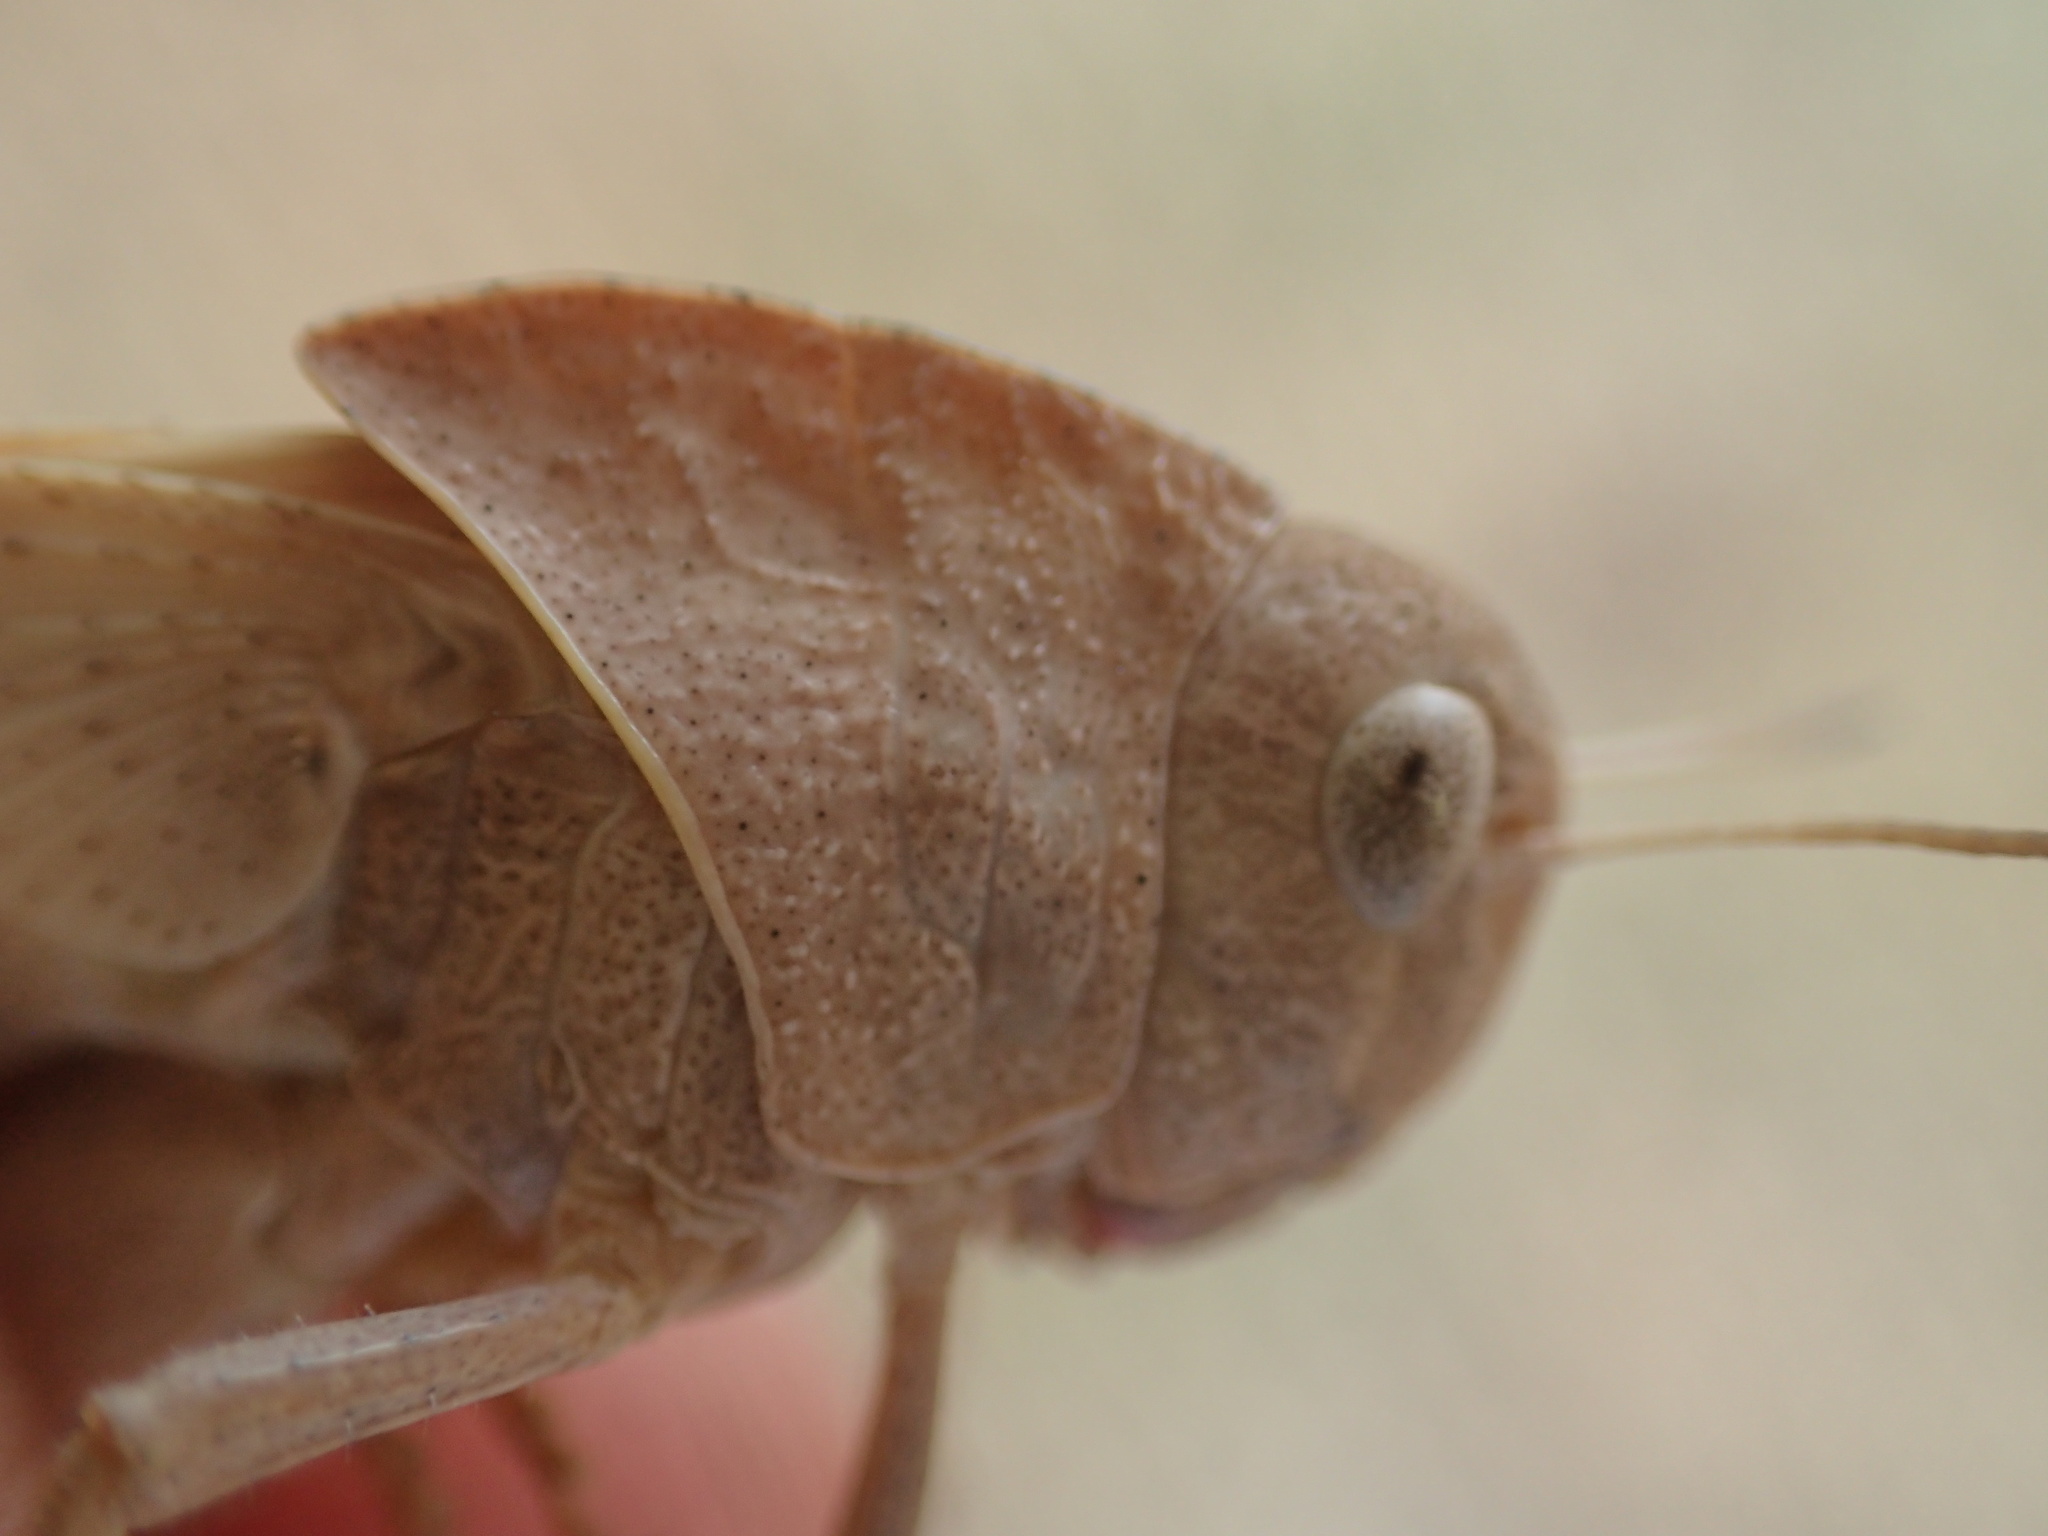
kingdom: Animalia
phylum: Arthropoda
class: Insecta
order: Orthoptera
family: Acrididae
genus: Gastrimargus
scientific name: Gastrimargus musicus
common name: Yellow-winged locust
